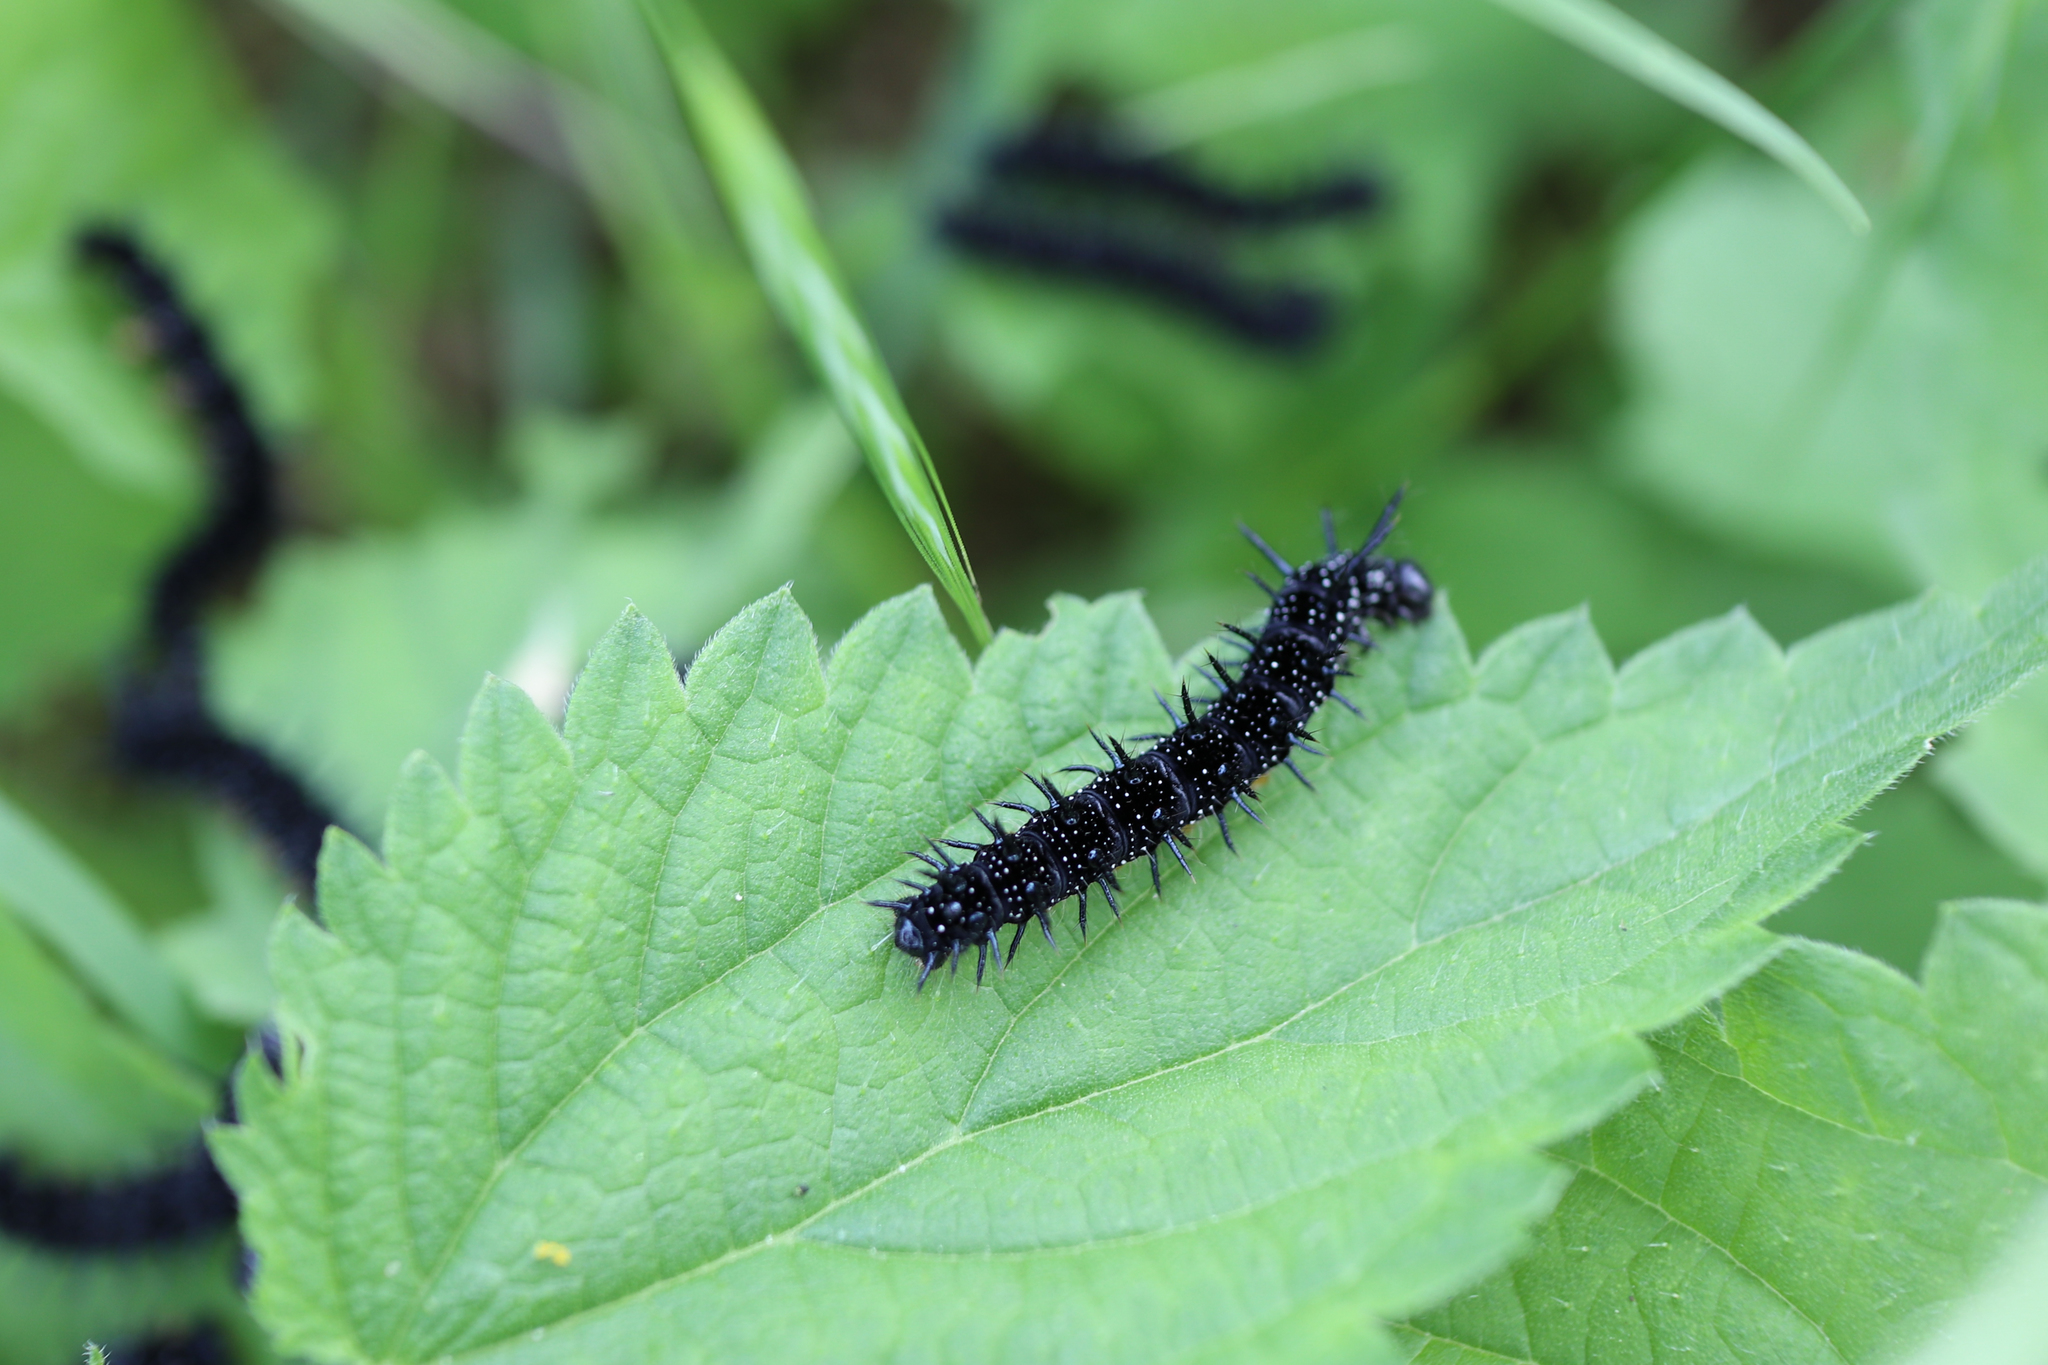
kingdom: Animalia
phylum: Arthropoda
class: Insecta
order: Lepidoptera
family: Nymphalidae
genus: Aglais
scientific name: Aglais io
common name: Peacock
